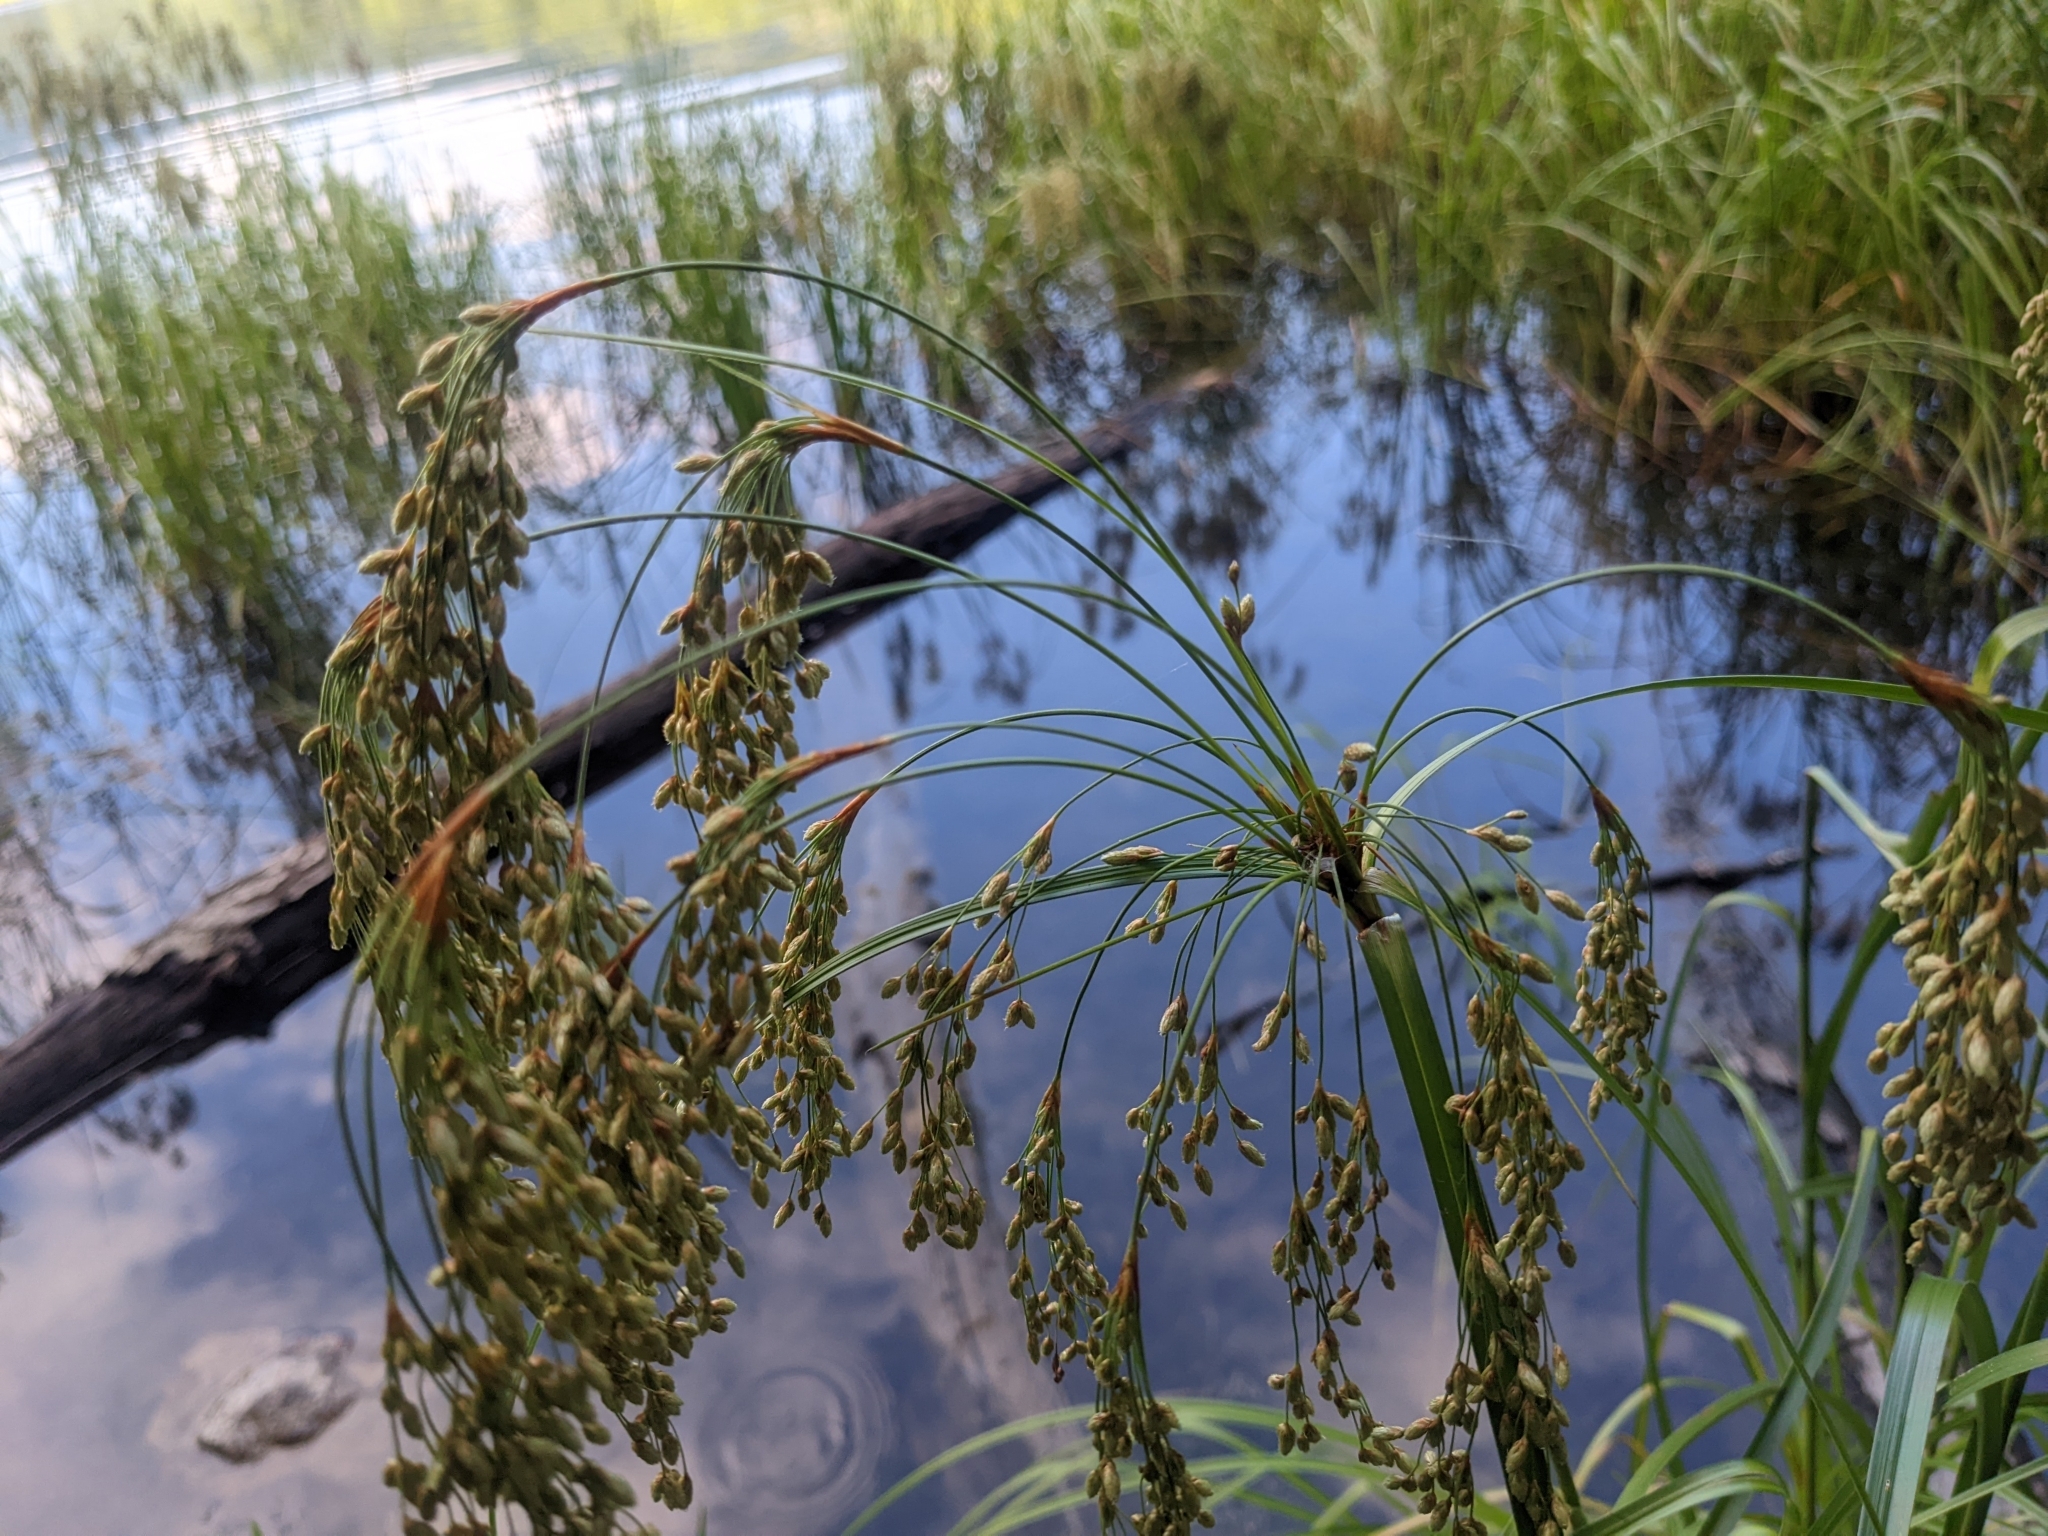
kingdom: Plantae
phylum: Tracheophyta
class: Liliopsida
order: Poales
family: Cyperaceae
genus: Scirpus
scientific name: Scirpus cyperinus
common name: Black-sheathed bulrush
